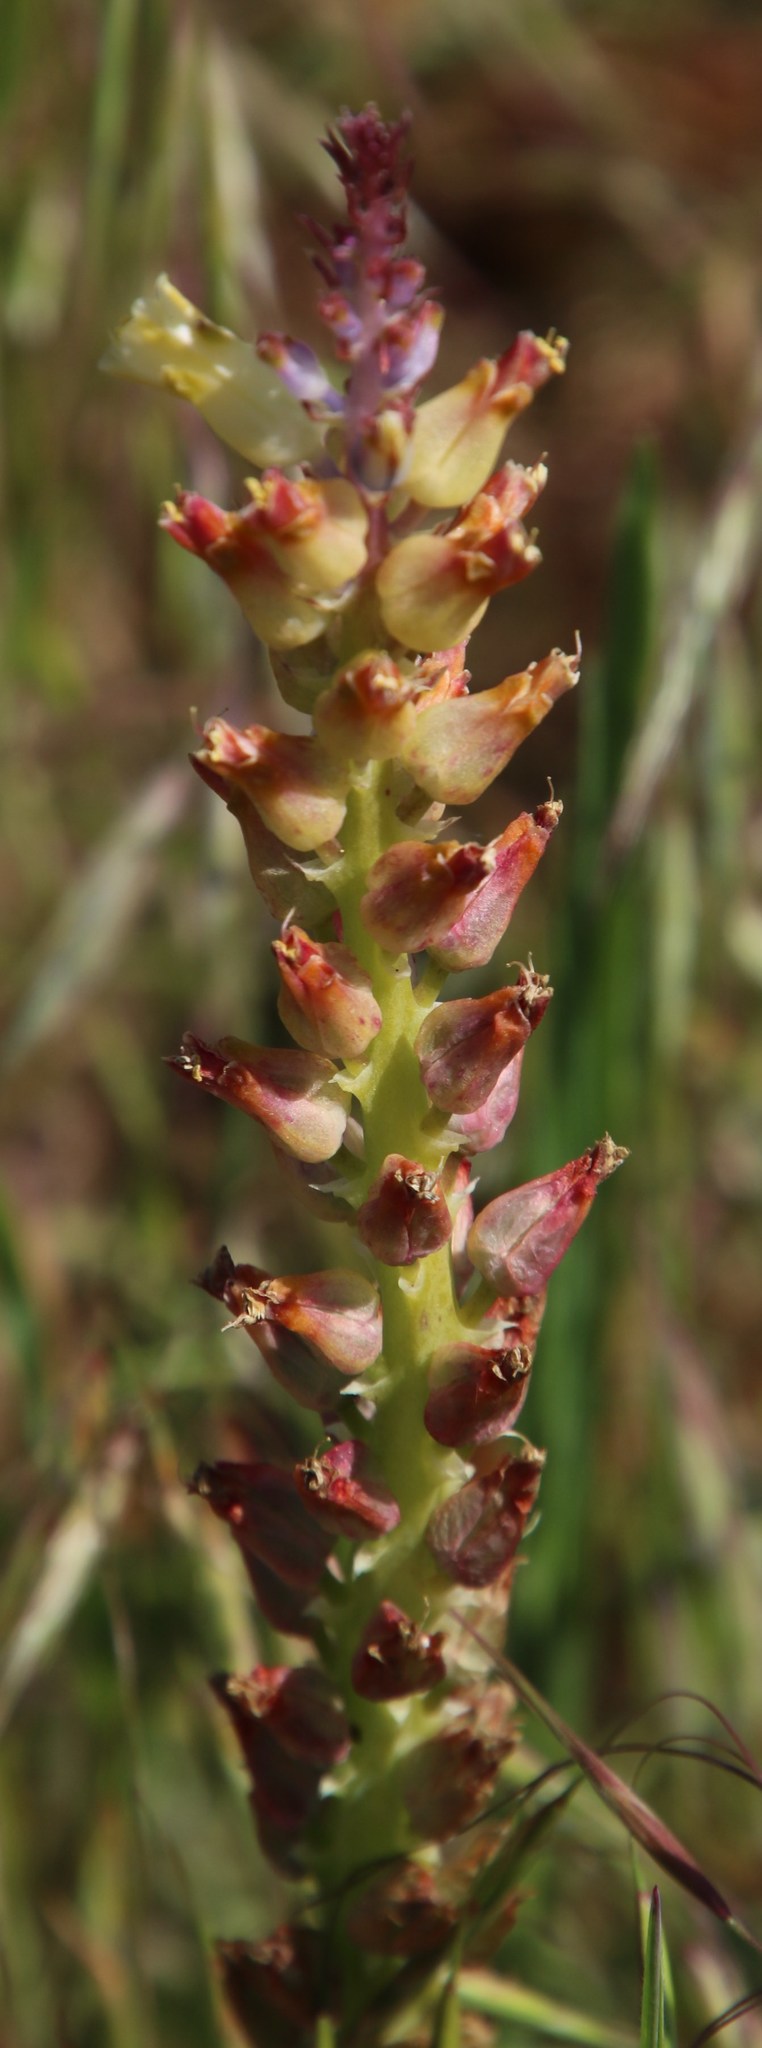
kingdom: Plantae
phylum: Tracheophyta
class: Liliopsida
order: Asparagales
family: Asparagaceae
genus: Lachenalia
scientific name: Lachenalia pallida
